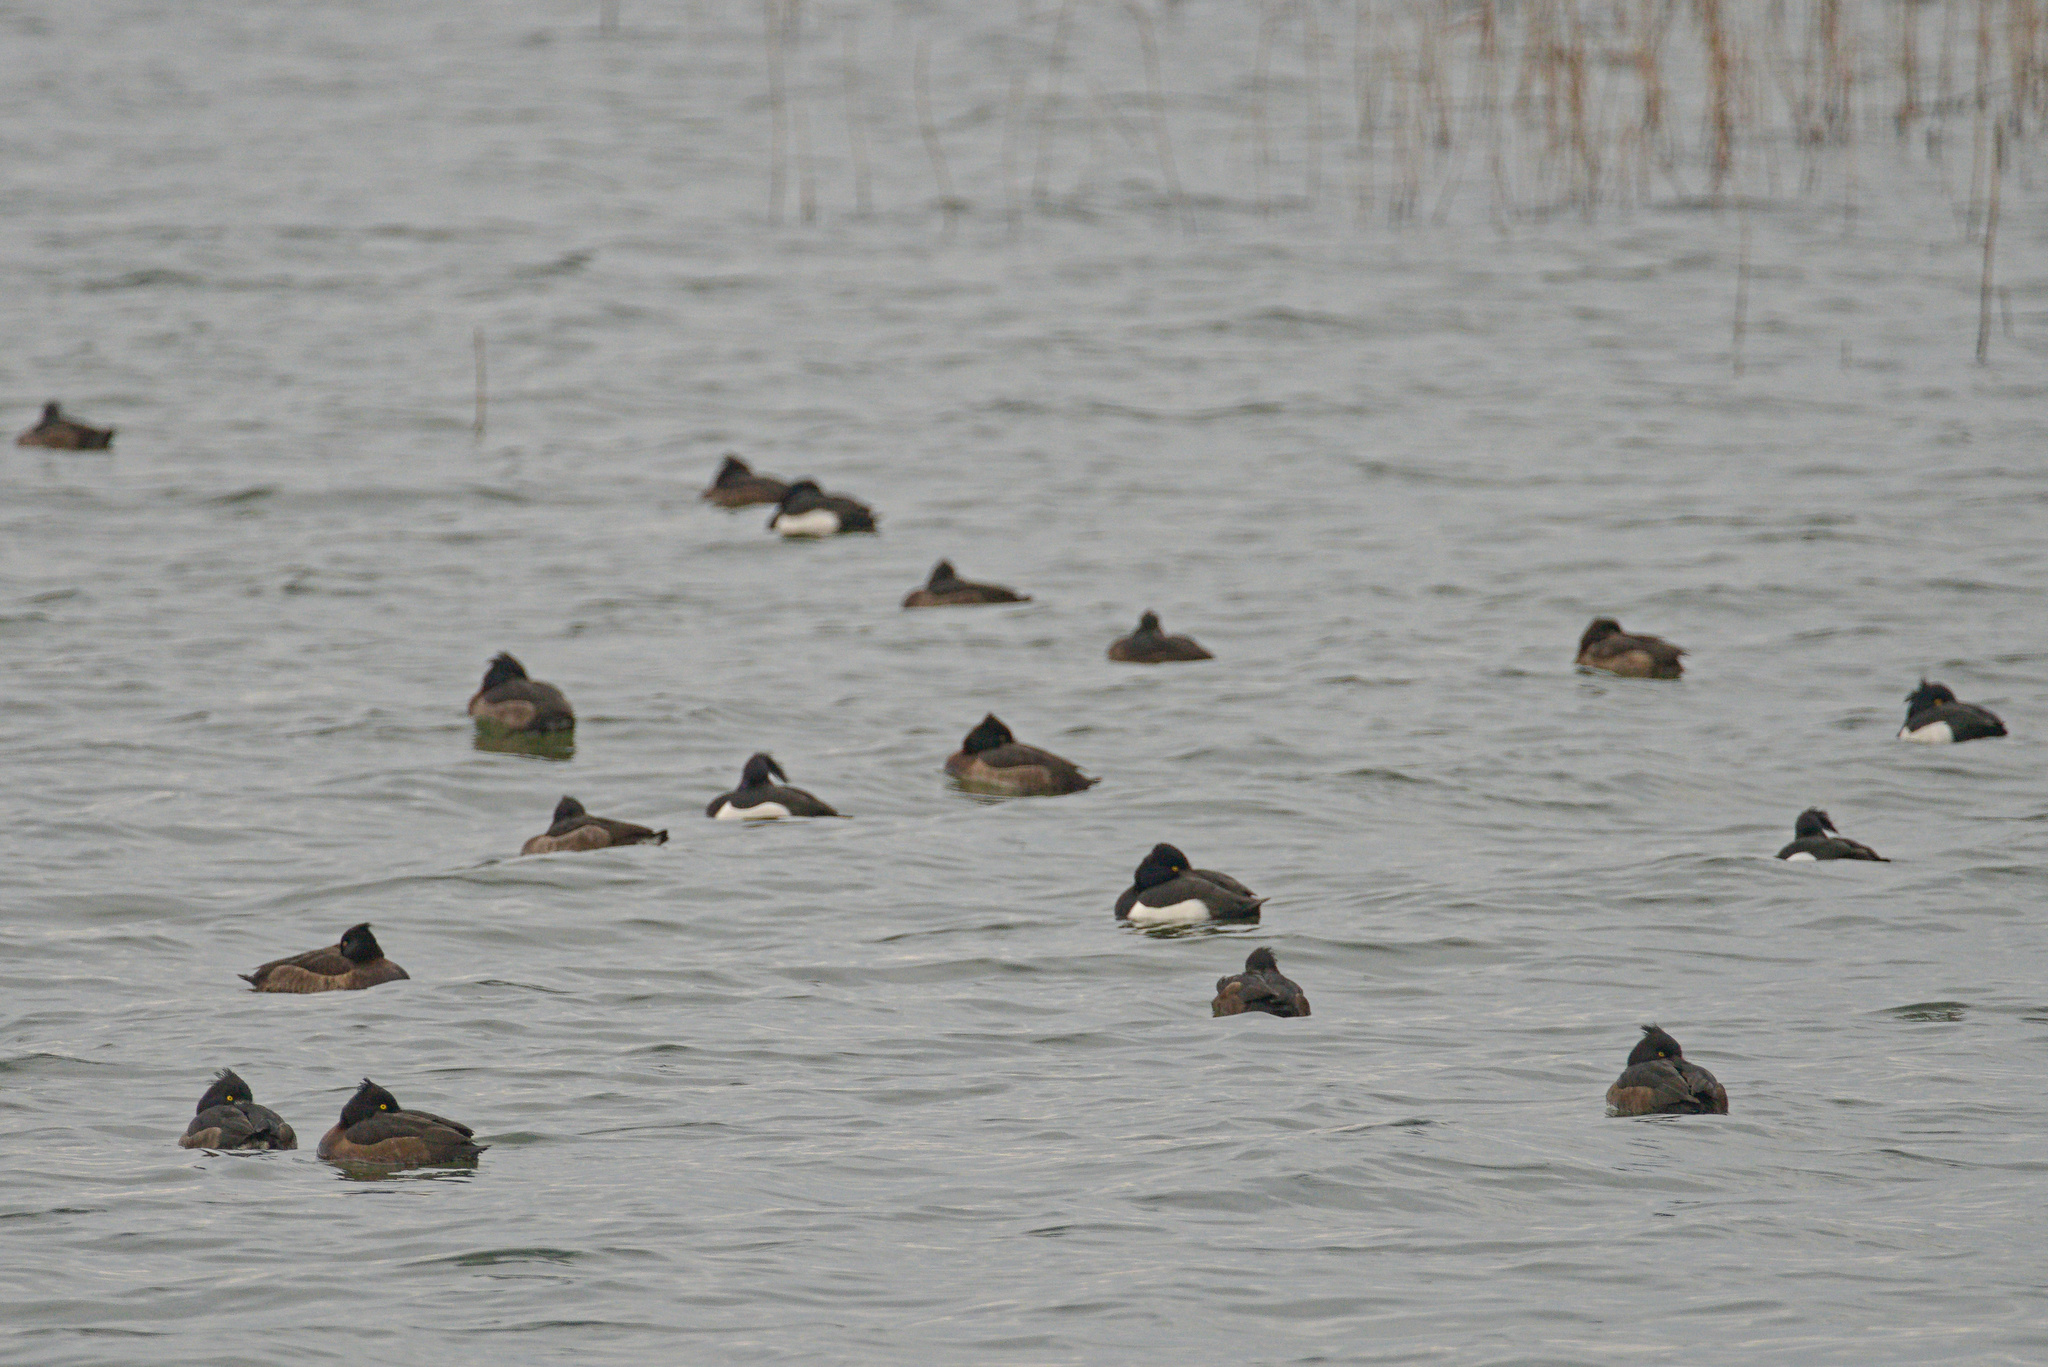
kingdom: Animalia
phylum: Chordata
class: Aves
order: Anseriformes
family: Anatidae
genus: Aythya
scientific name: Aythya fuligula
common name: Tufted duck
